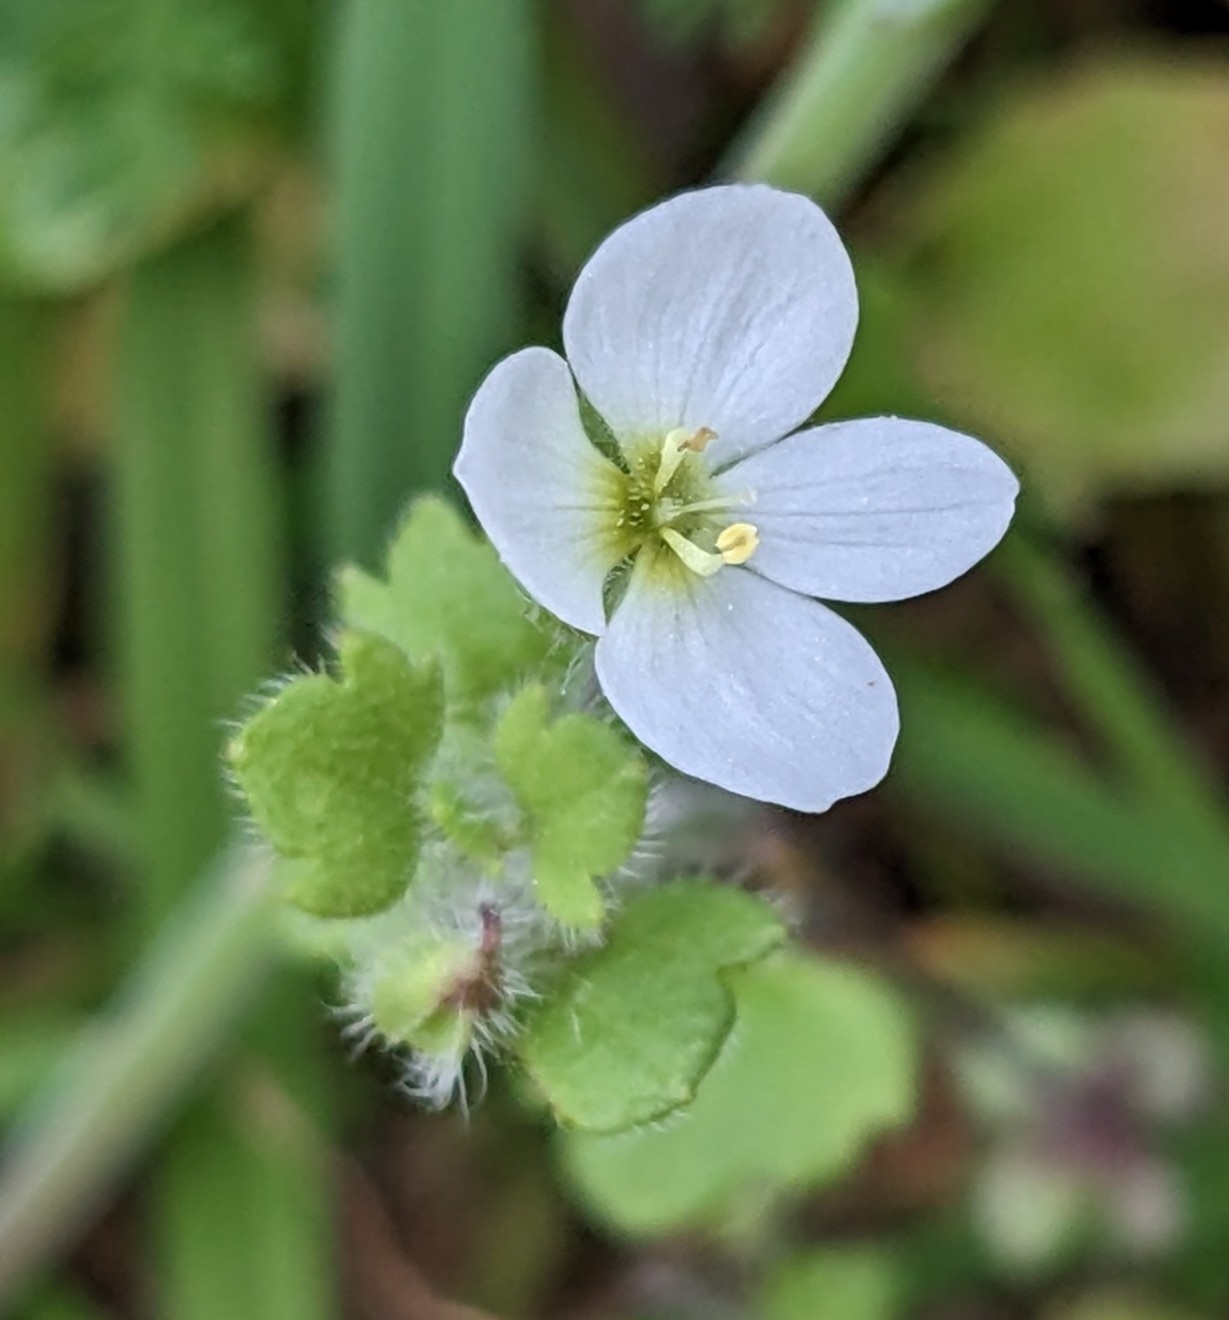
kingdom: Plantae
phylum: Tracheophyta
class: Magnoliopsida
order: Lamiales
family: Plantaginaceae
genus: Veronica
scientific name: Veronica cymbalaria
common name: Pale speedwell
